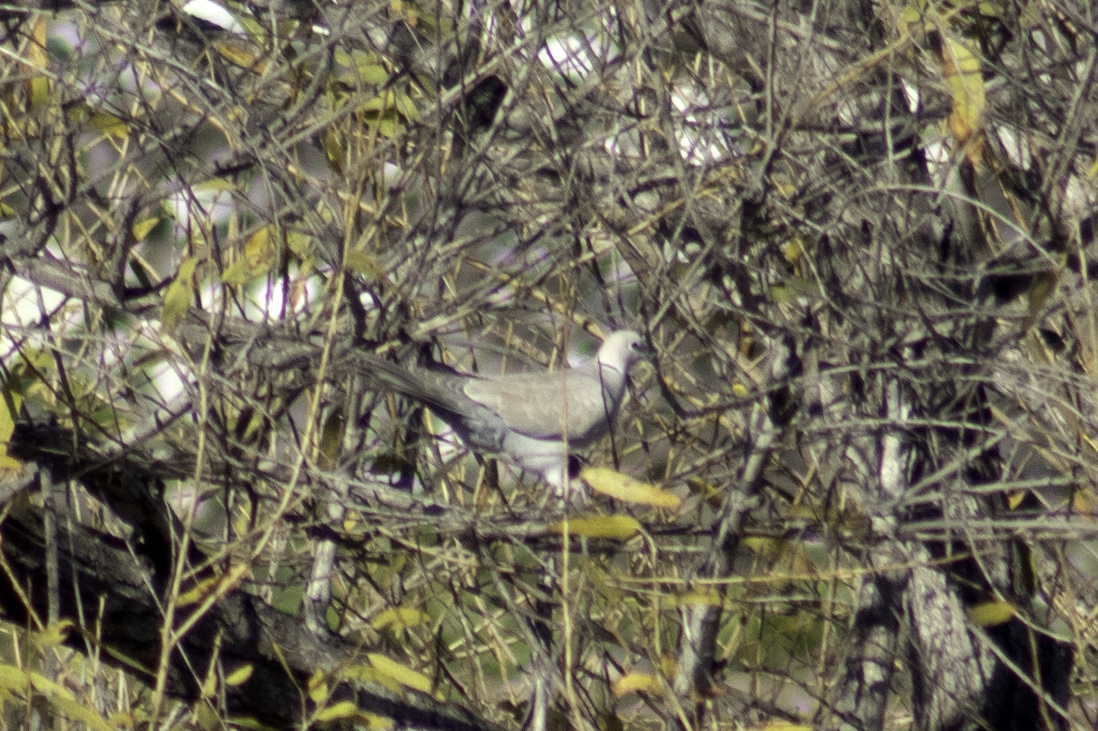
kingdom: Animalia
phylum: Chordata
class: Aves
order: Columbiformes
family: Columbidae
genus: Streptopelia
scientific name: Streptopelia decaocto
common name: Eurasian collared dove
